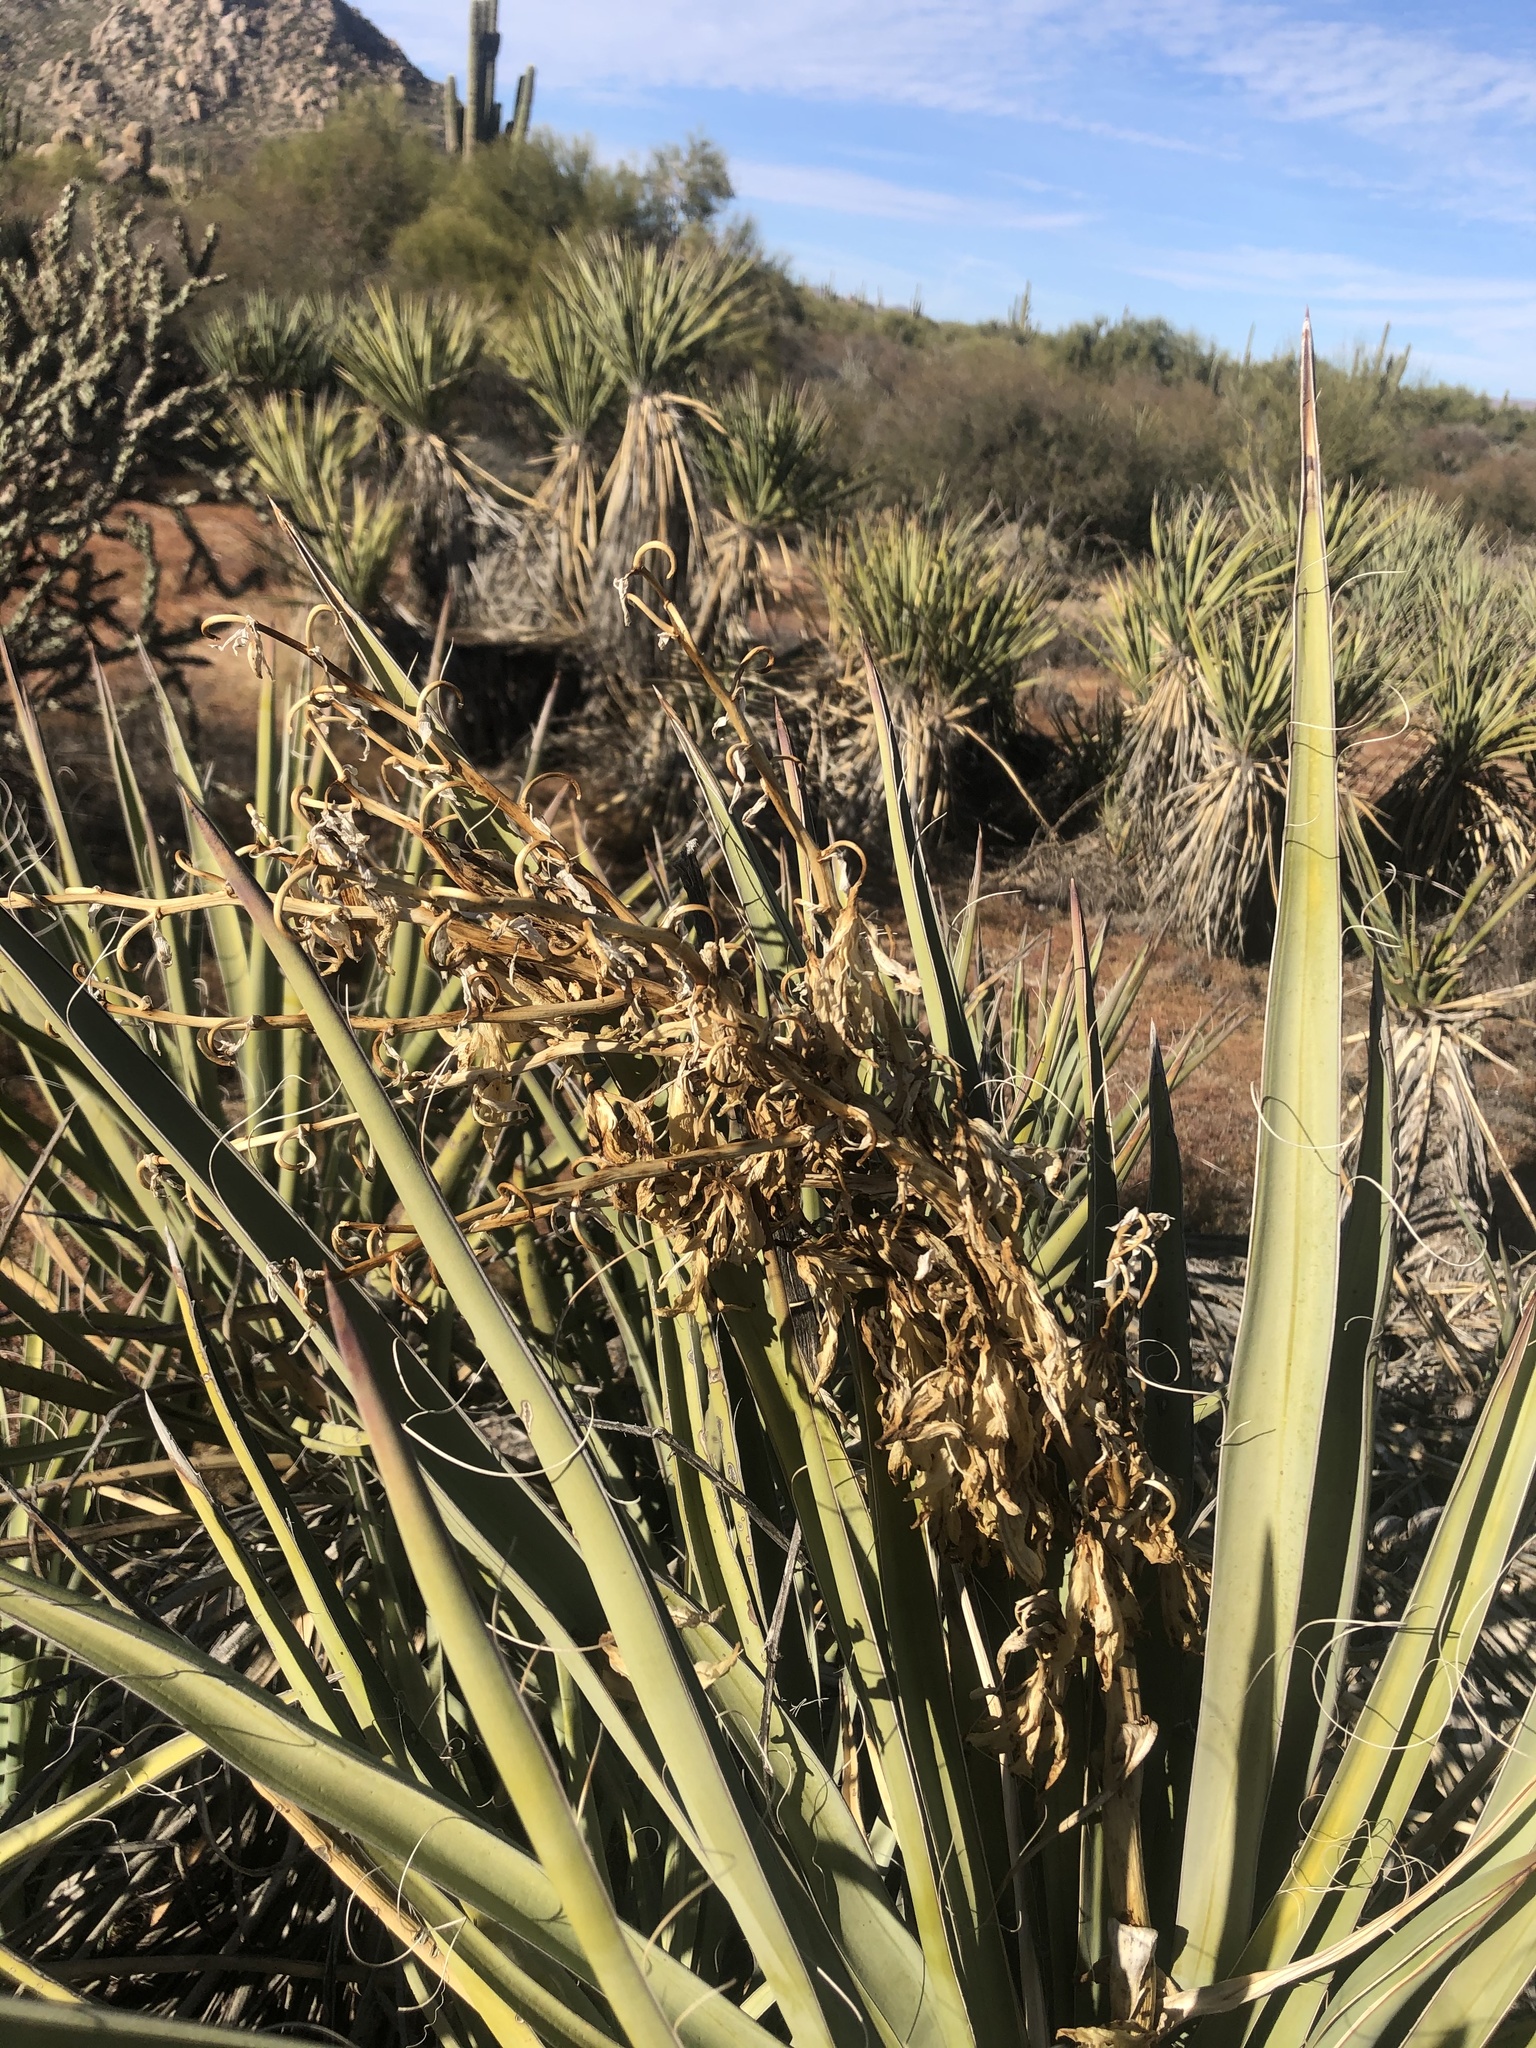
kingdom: Plantae
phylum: Tracheophyta
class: Liliopsida
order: Asparagales
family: Asparagaceae
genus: Yucca
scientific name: Yucca baccata
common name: Banana yucca
